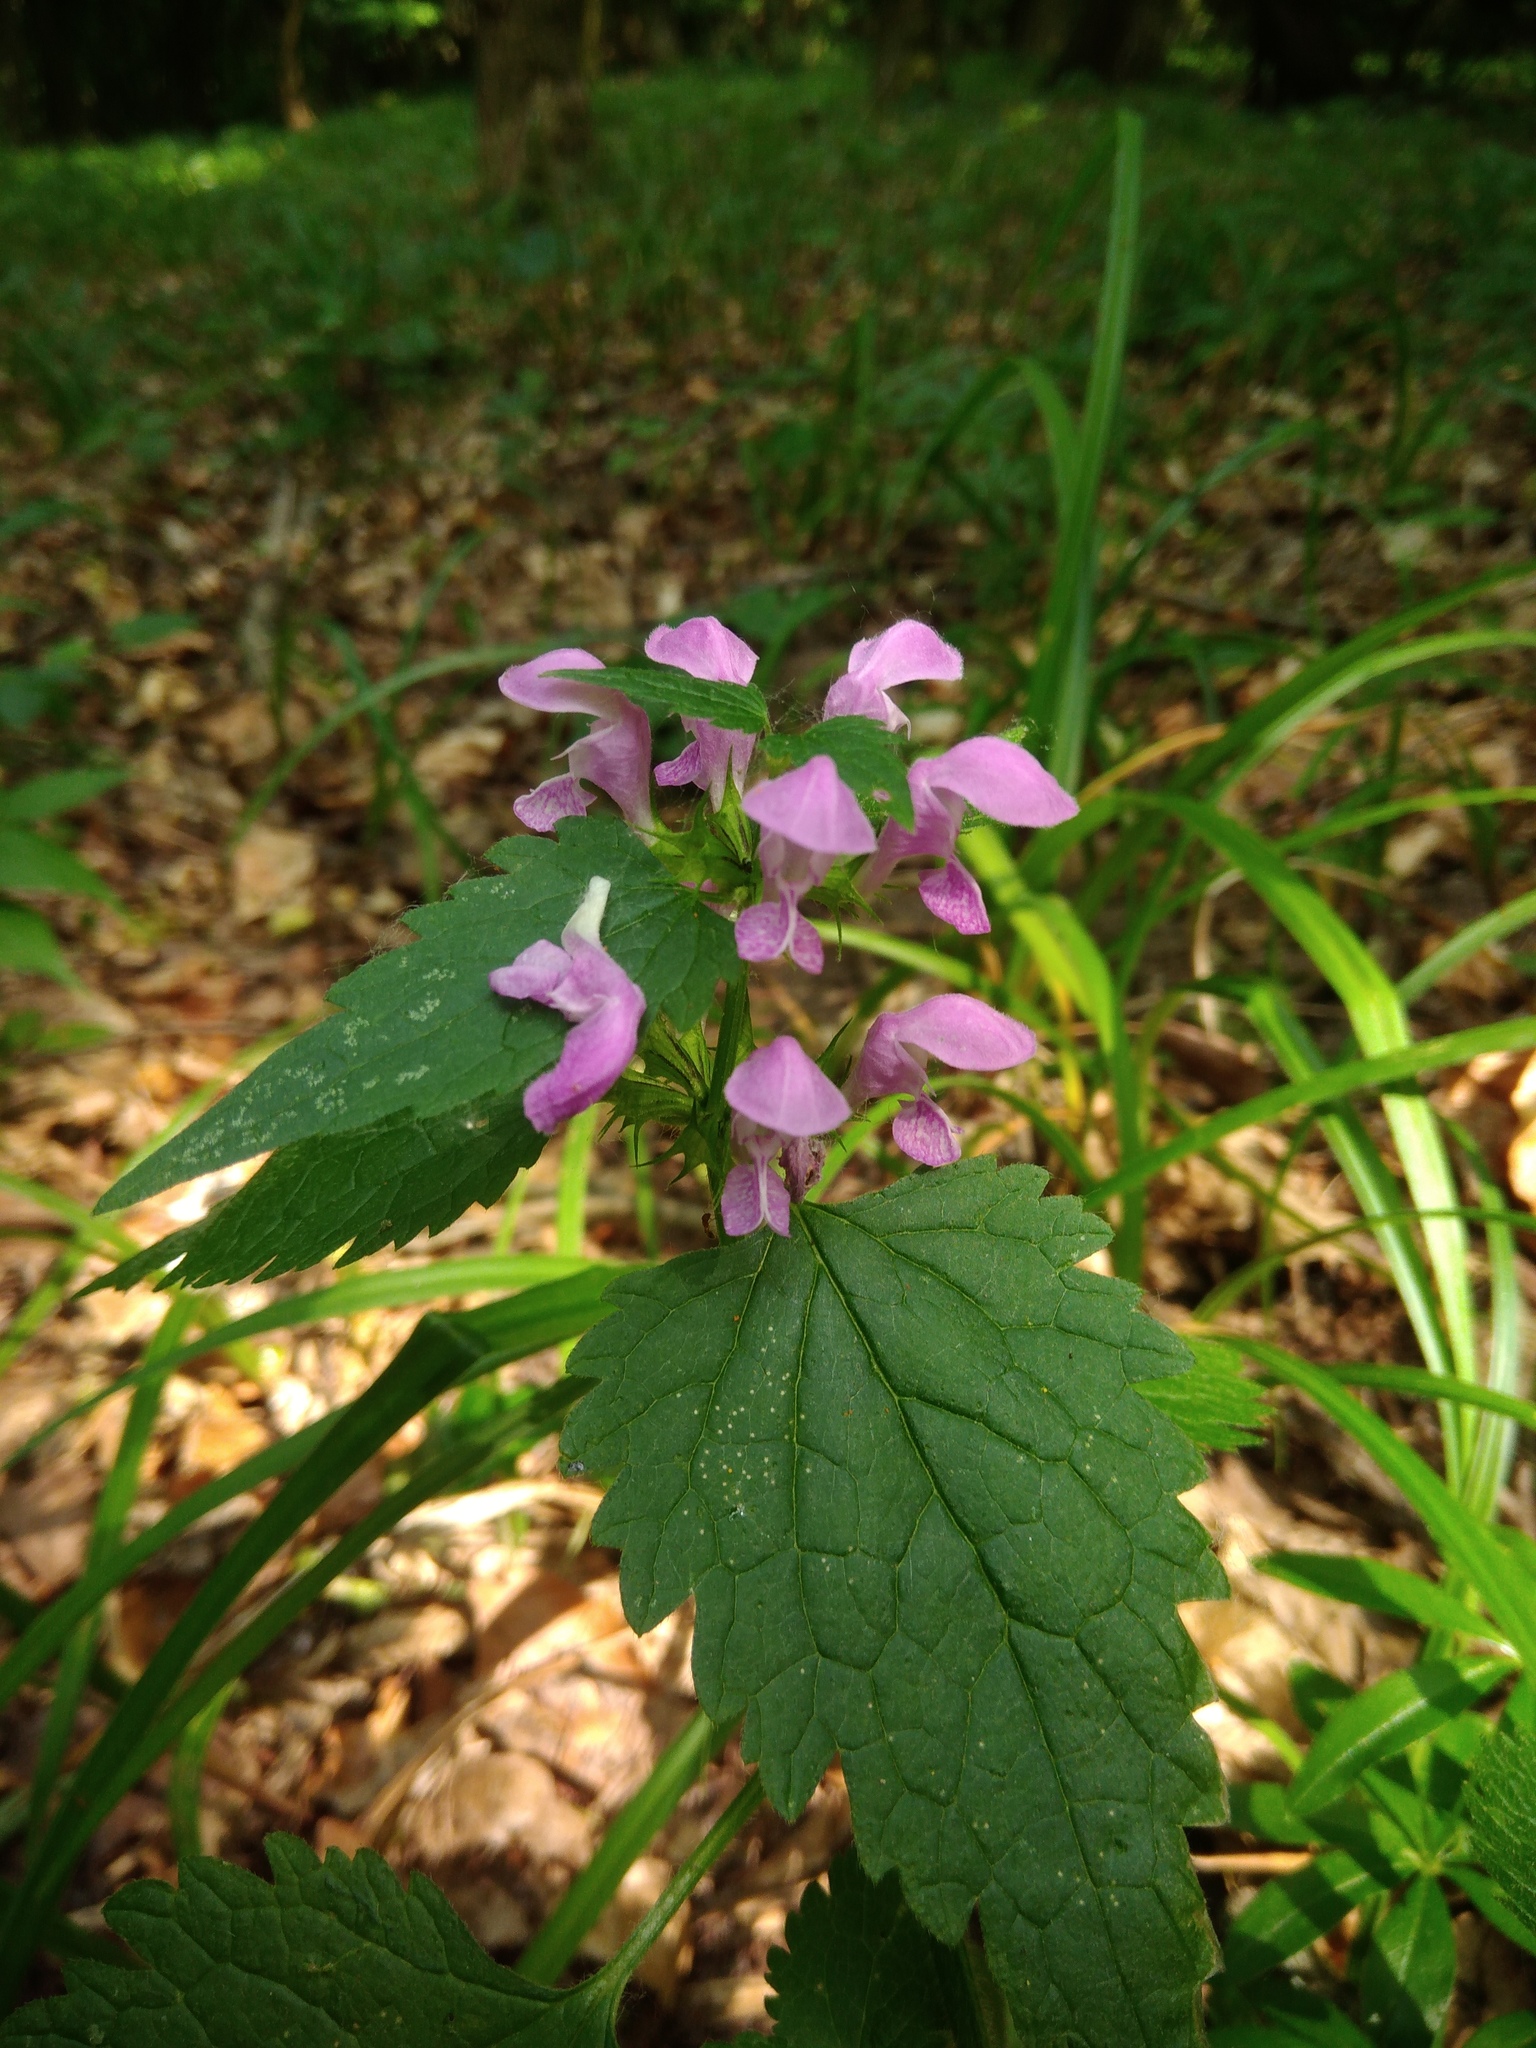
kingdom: Plantae
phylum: Tracheophyta
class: Magnoliopsida
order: Lamiales
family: Lamiaceae
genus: Lamium
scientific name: Lamium maculatum
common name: Spotted dead-nettle
